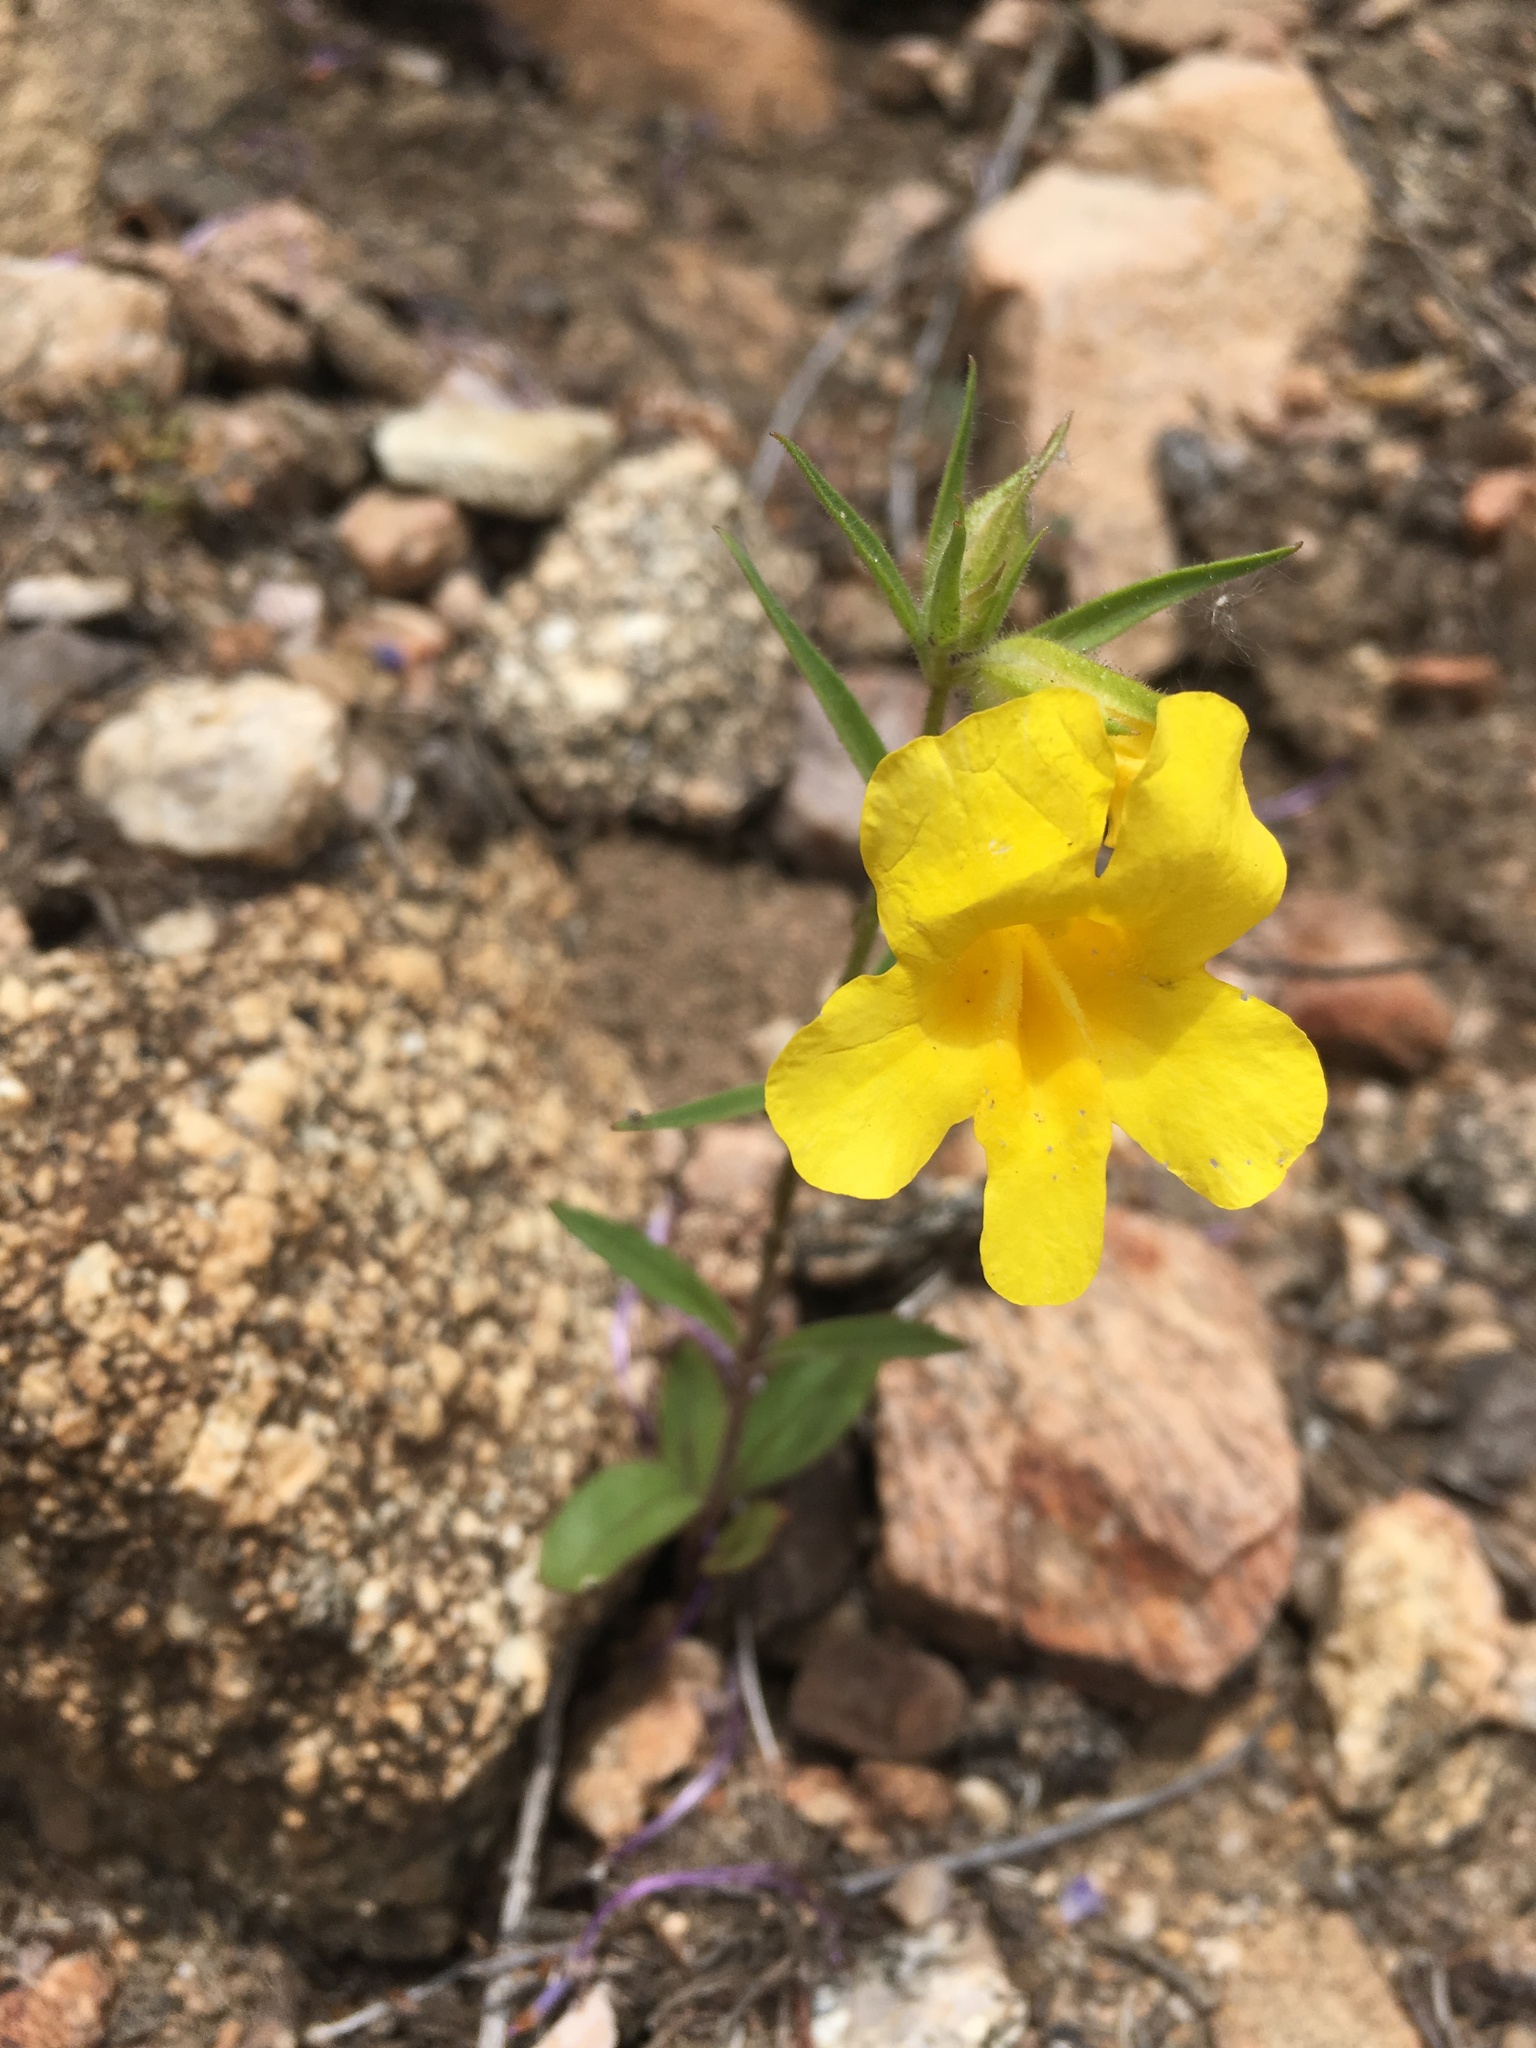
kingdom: Plantae
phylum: Tracheophyta
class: Magnoliopsida
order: Lamiales
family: Phrymaceae
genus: Diplacus
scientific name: Diplacus brevipes
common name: Wide-throat yellow monkey-flower
